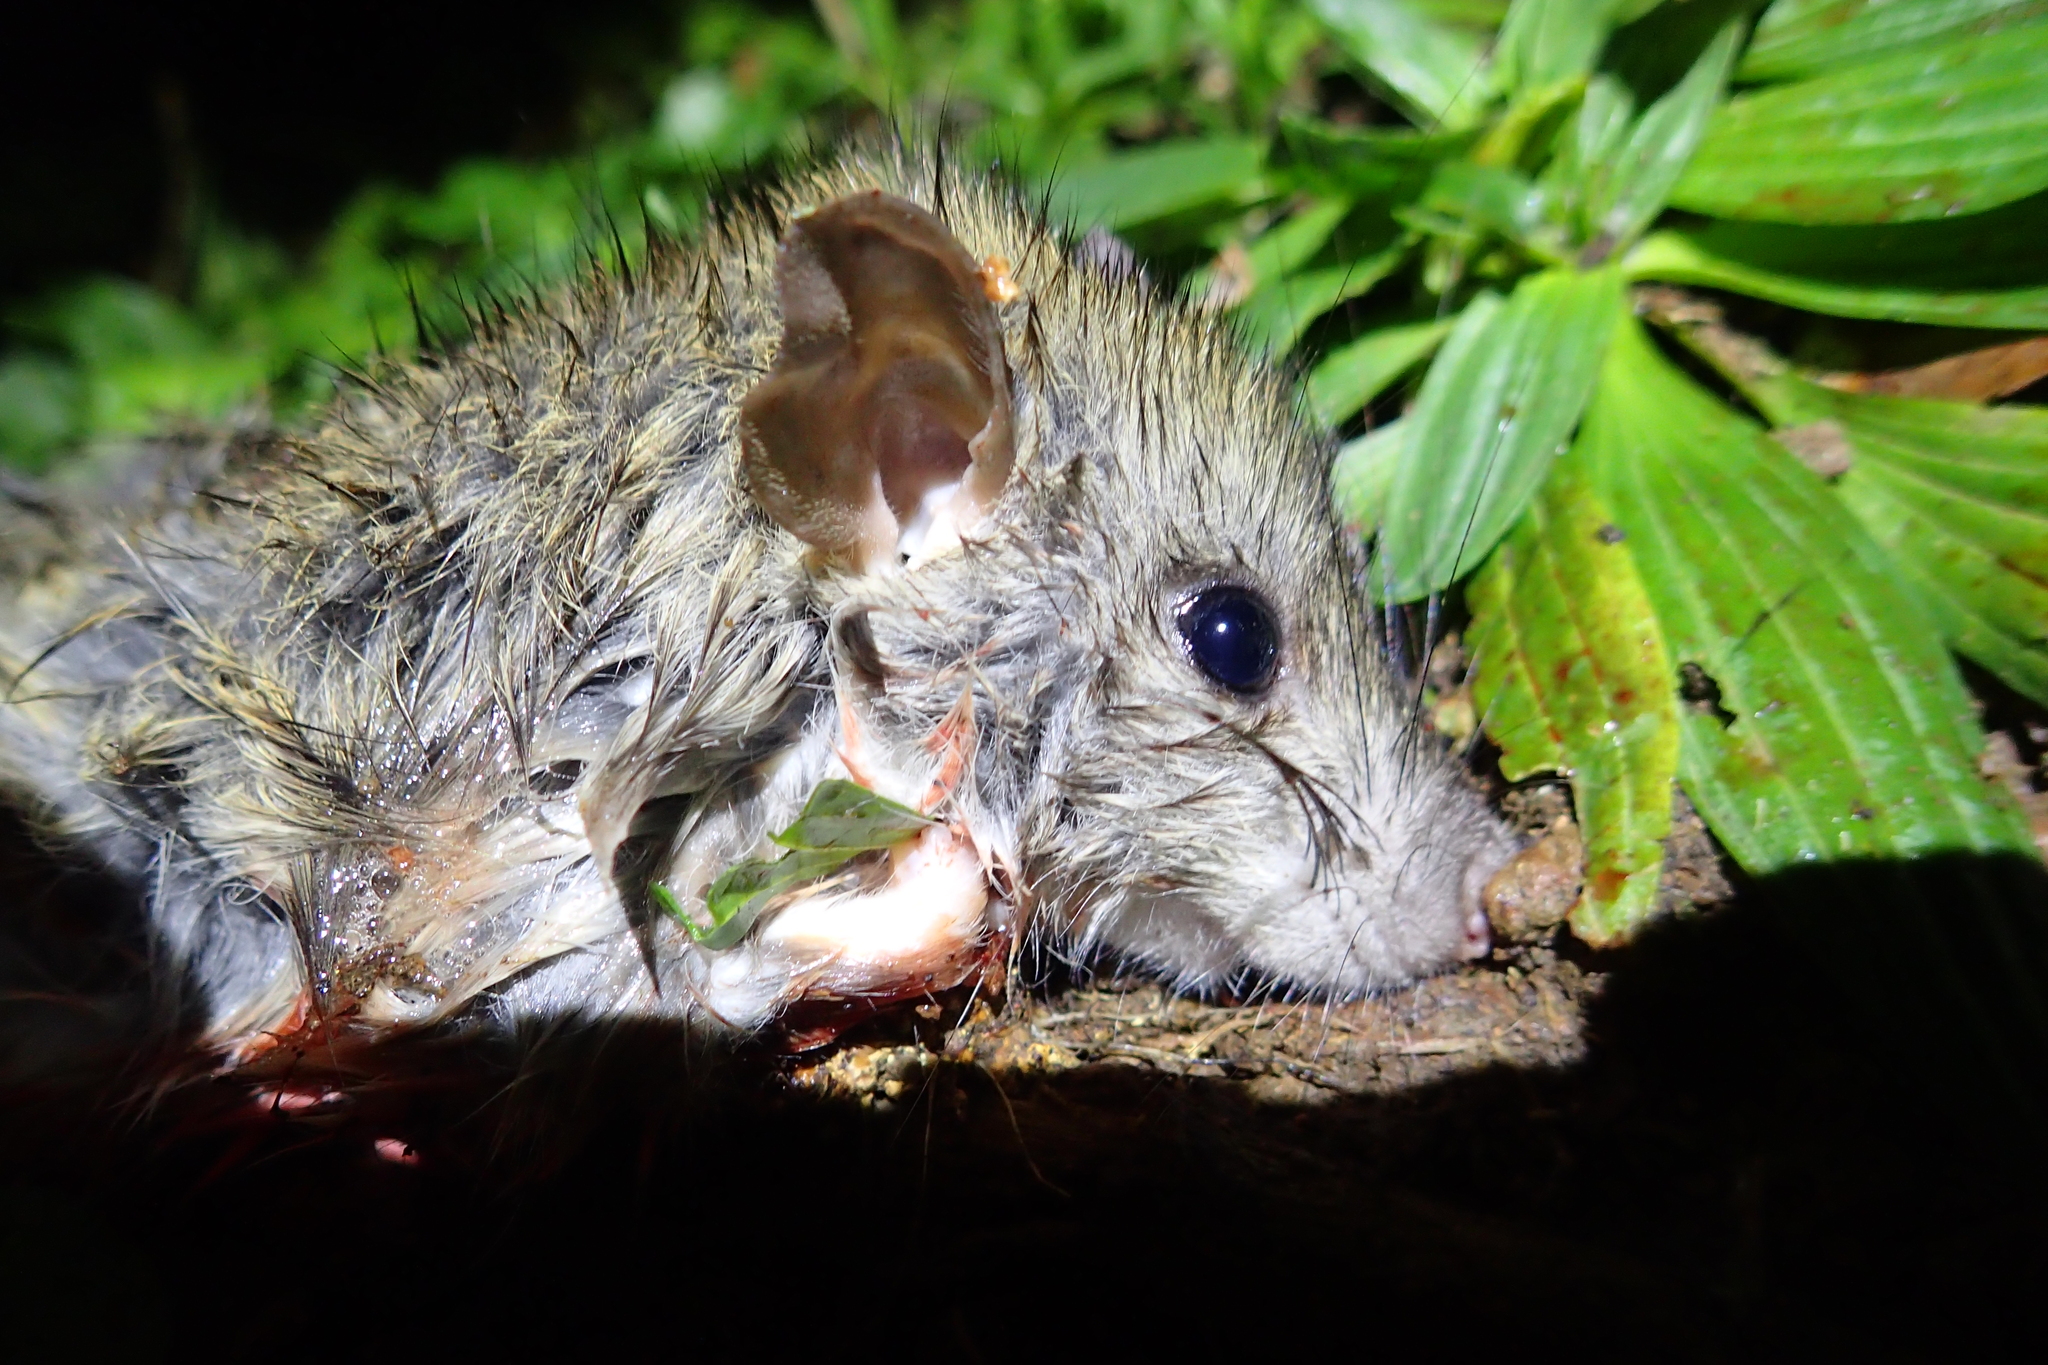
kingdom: Animalia
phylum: Chordata
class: Mammalia
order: Rodentia
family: Muridae
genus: Rattus
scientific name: Rattus rattus
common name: Black rat
